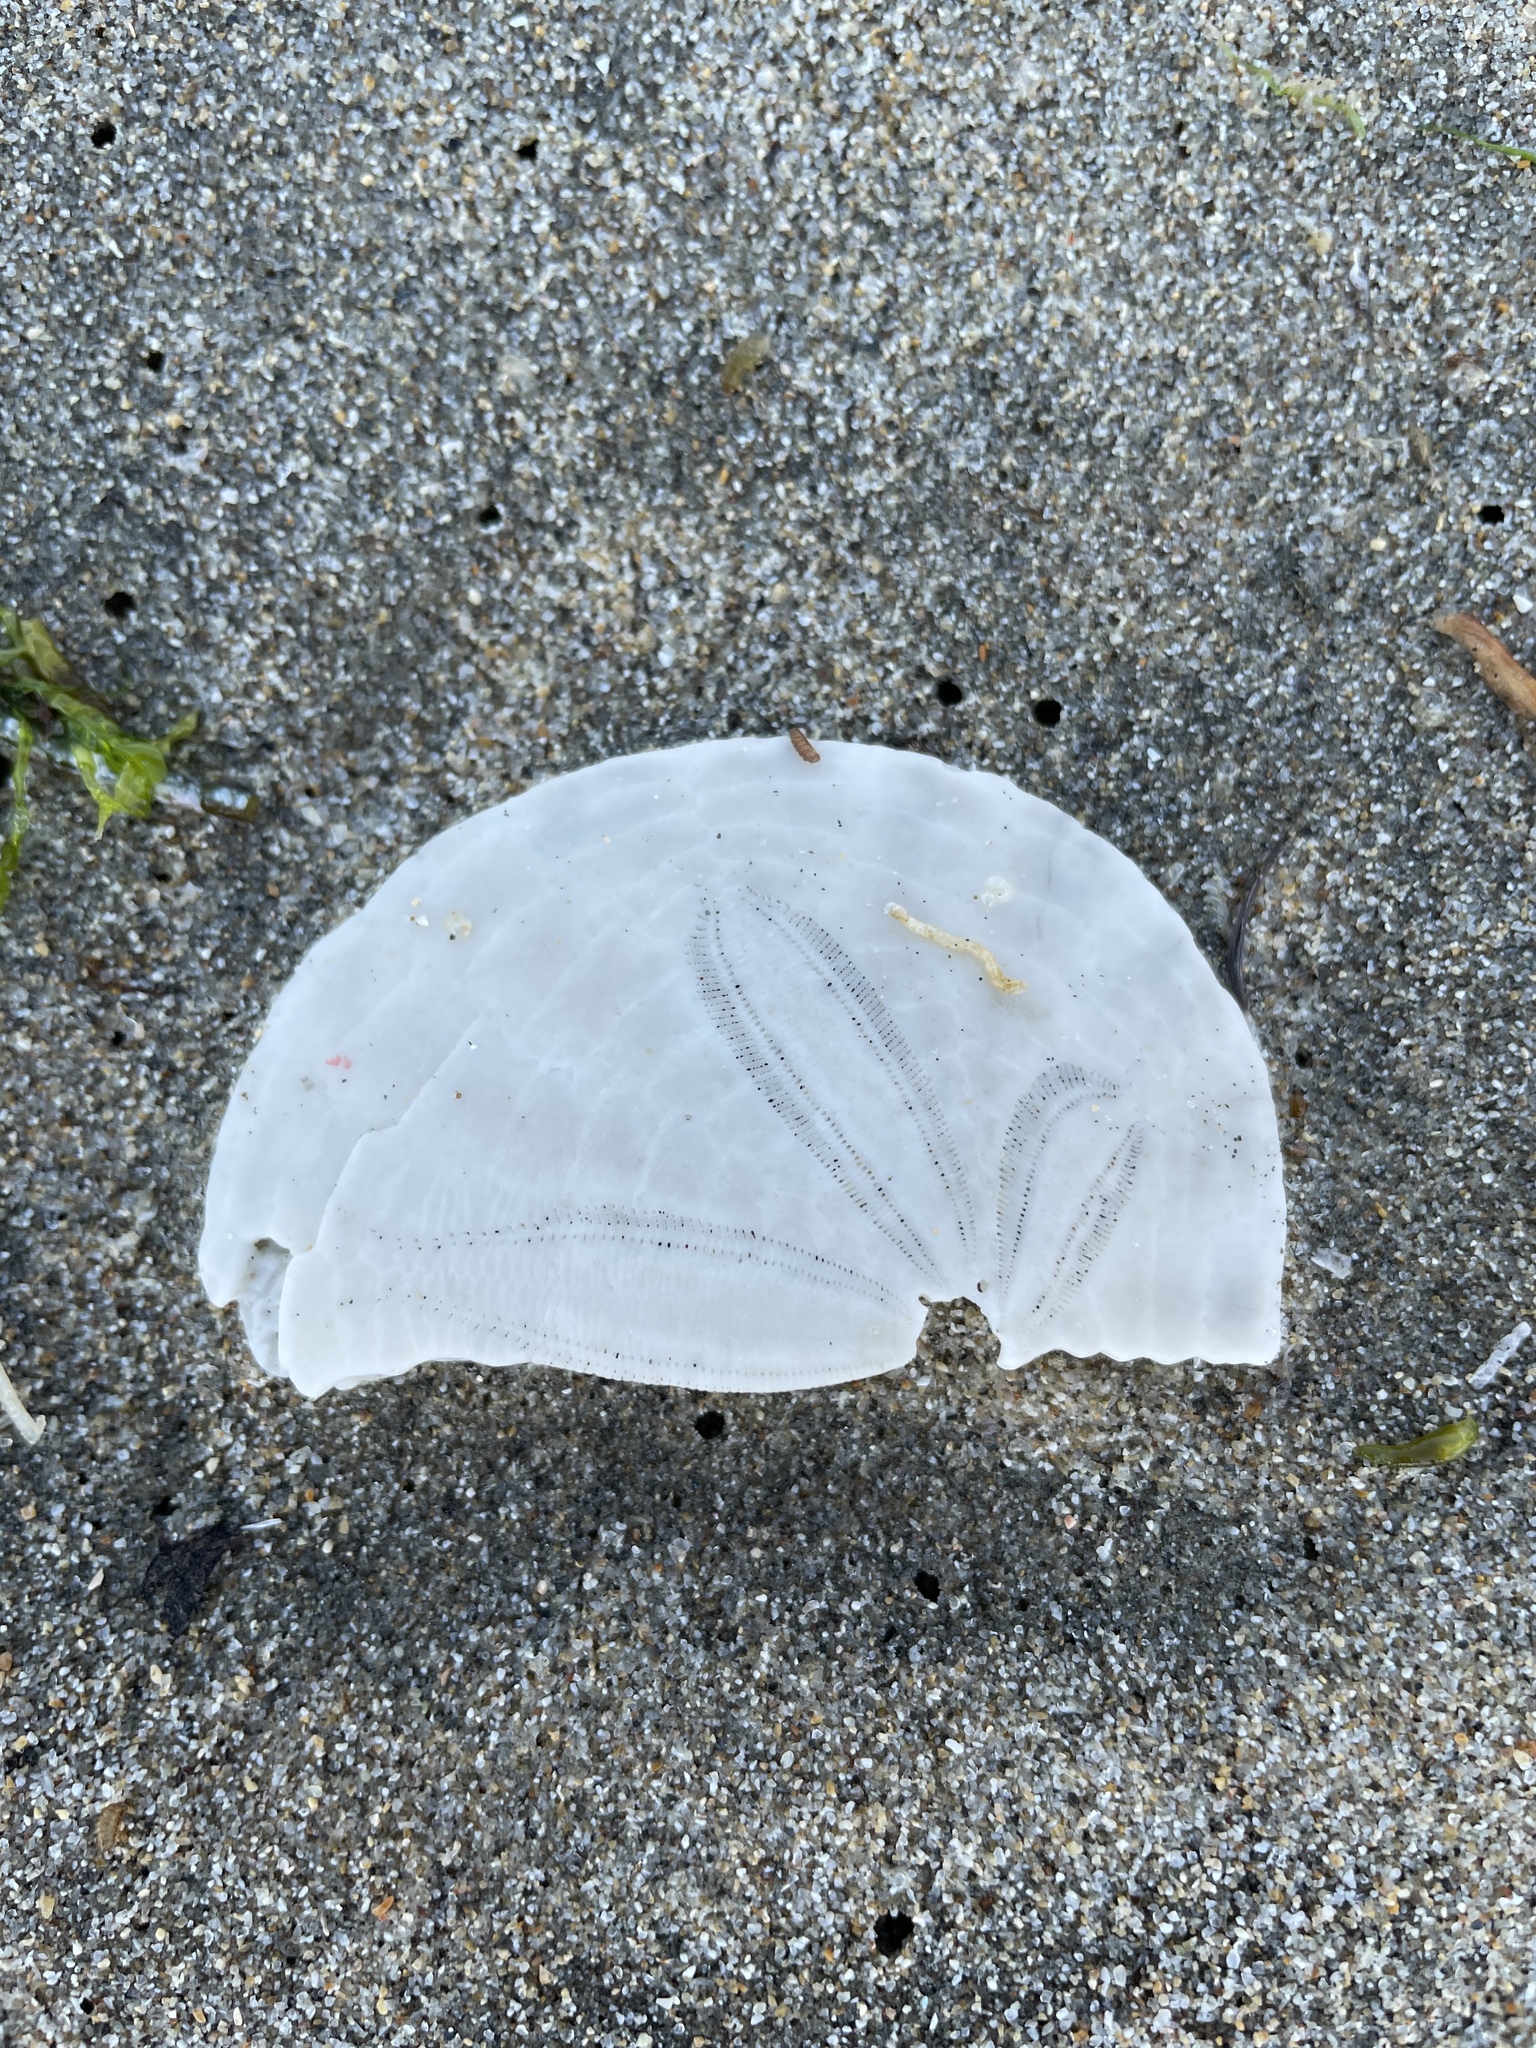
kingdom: Animalia
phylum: Echinodermata
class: Echinoidea
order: Echinolampadacea
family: Dendrasteridae
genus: Dendraster
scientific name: Dendraster excentricus
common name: Eccentric sand dollar sea urchin
